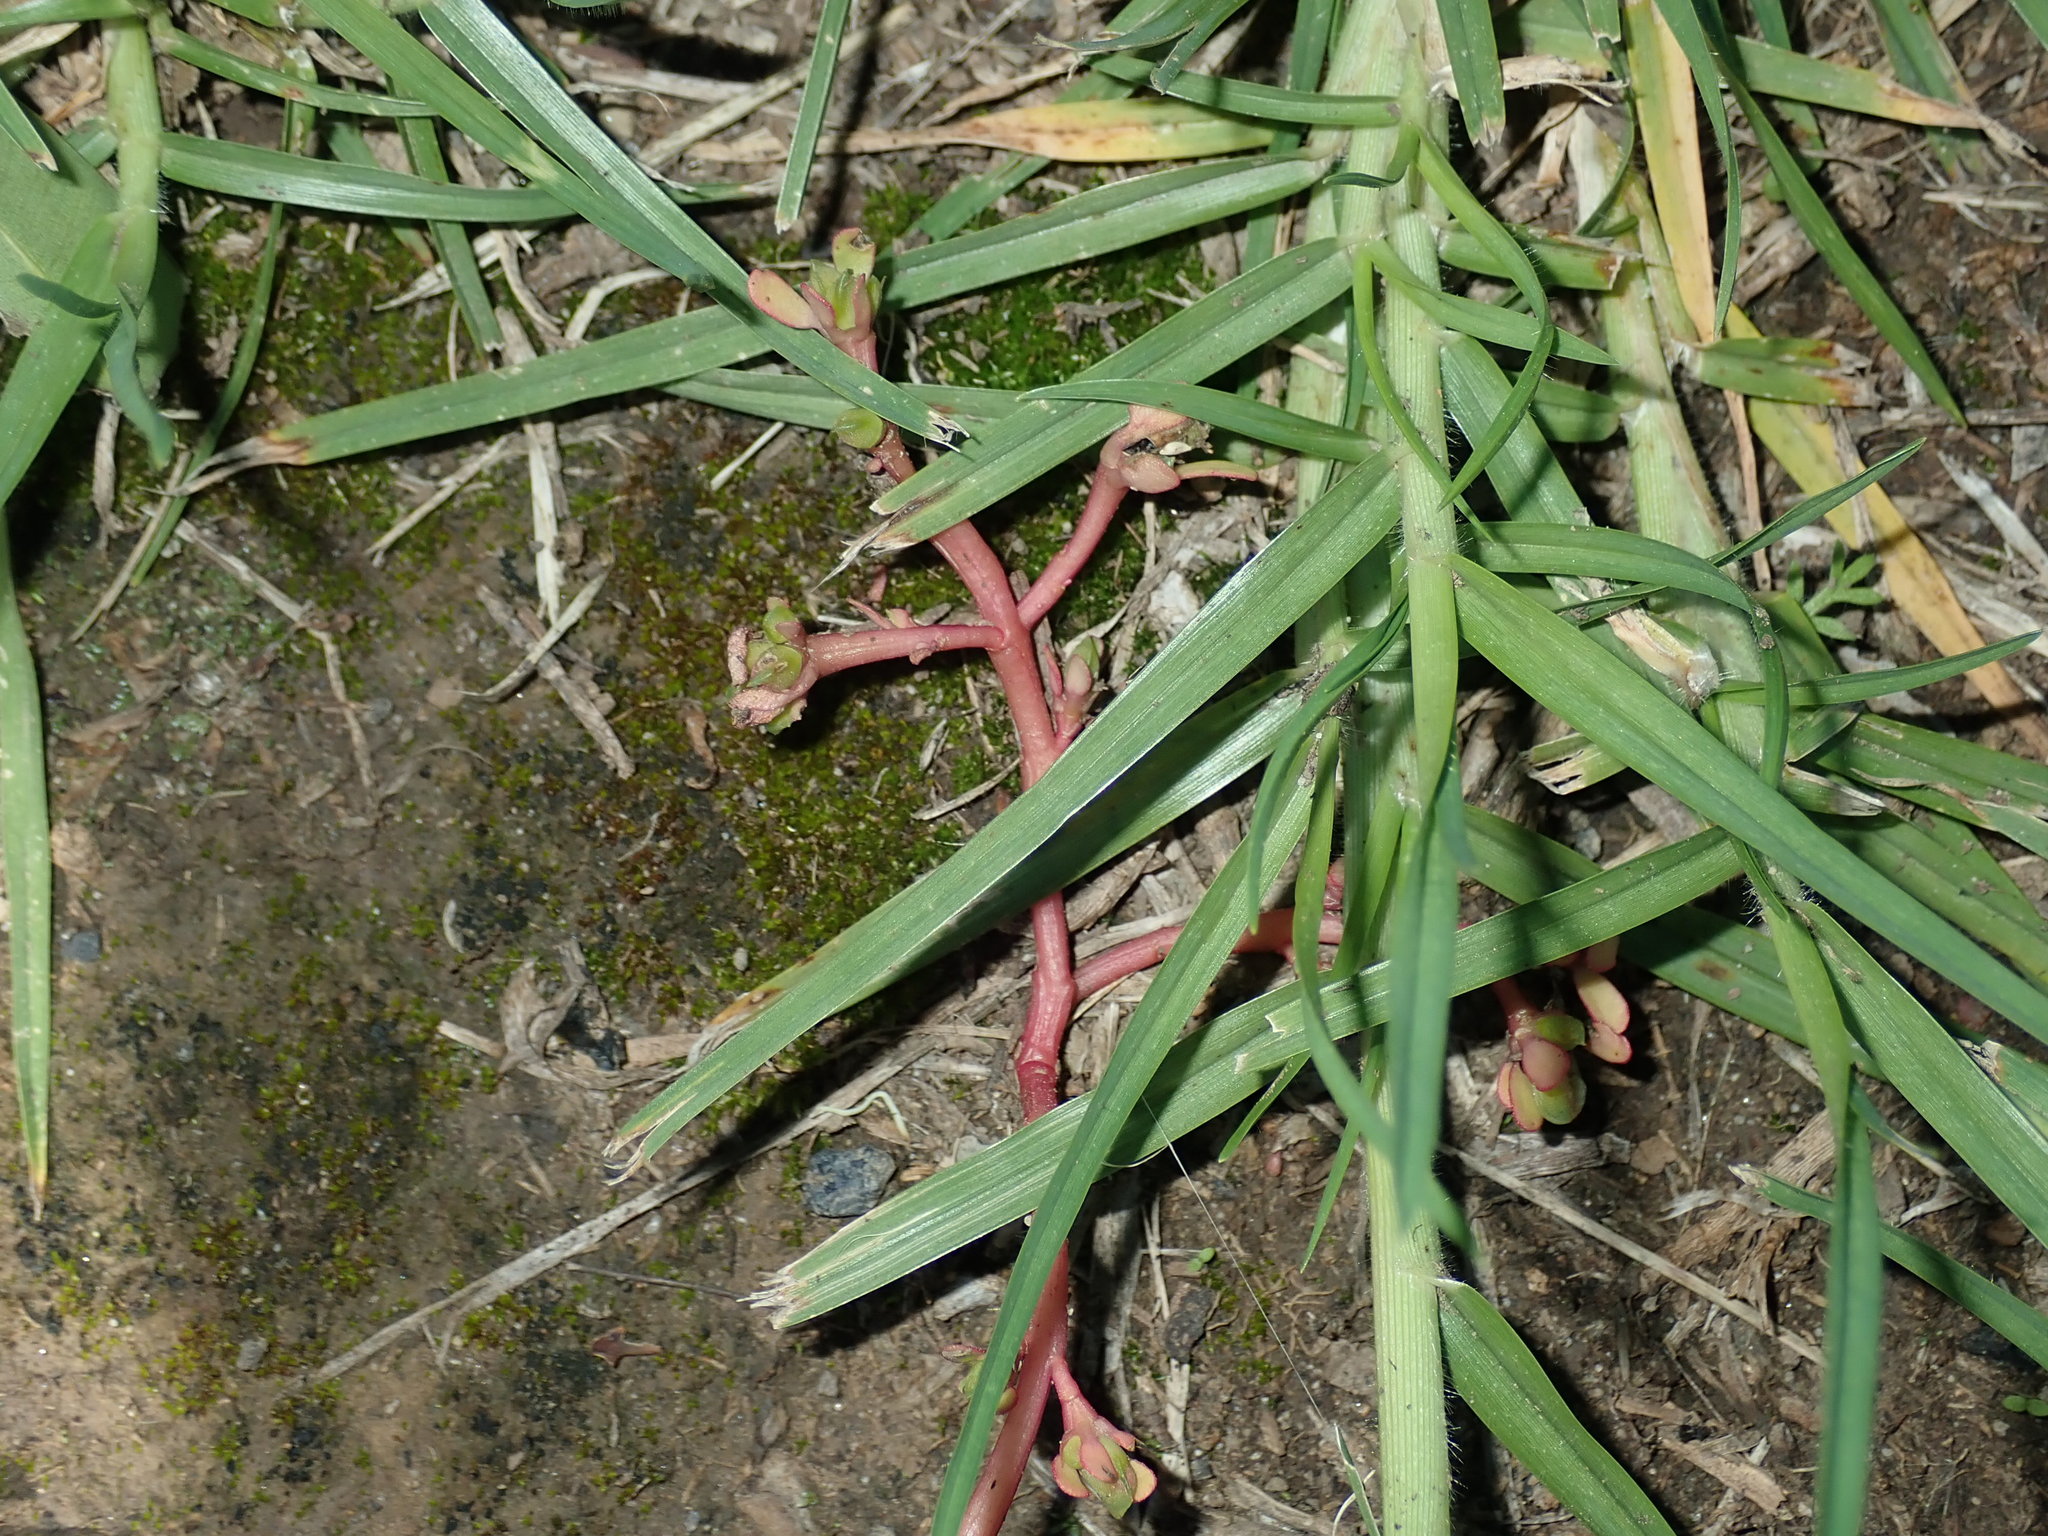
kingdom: Plantae
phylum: Tracheophyta
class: Magnoliopsida
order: Caryophyllales
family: Portulacaceae
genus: Portulaca
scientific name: Portulaca oleracea
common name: Common purslane
